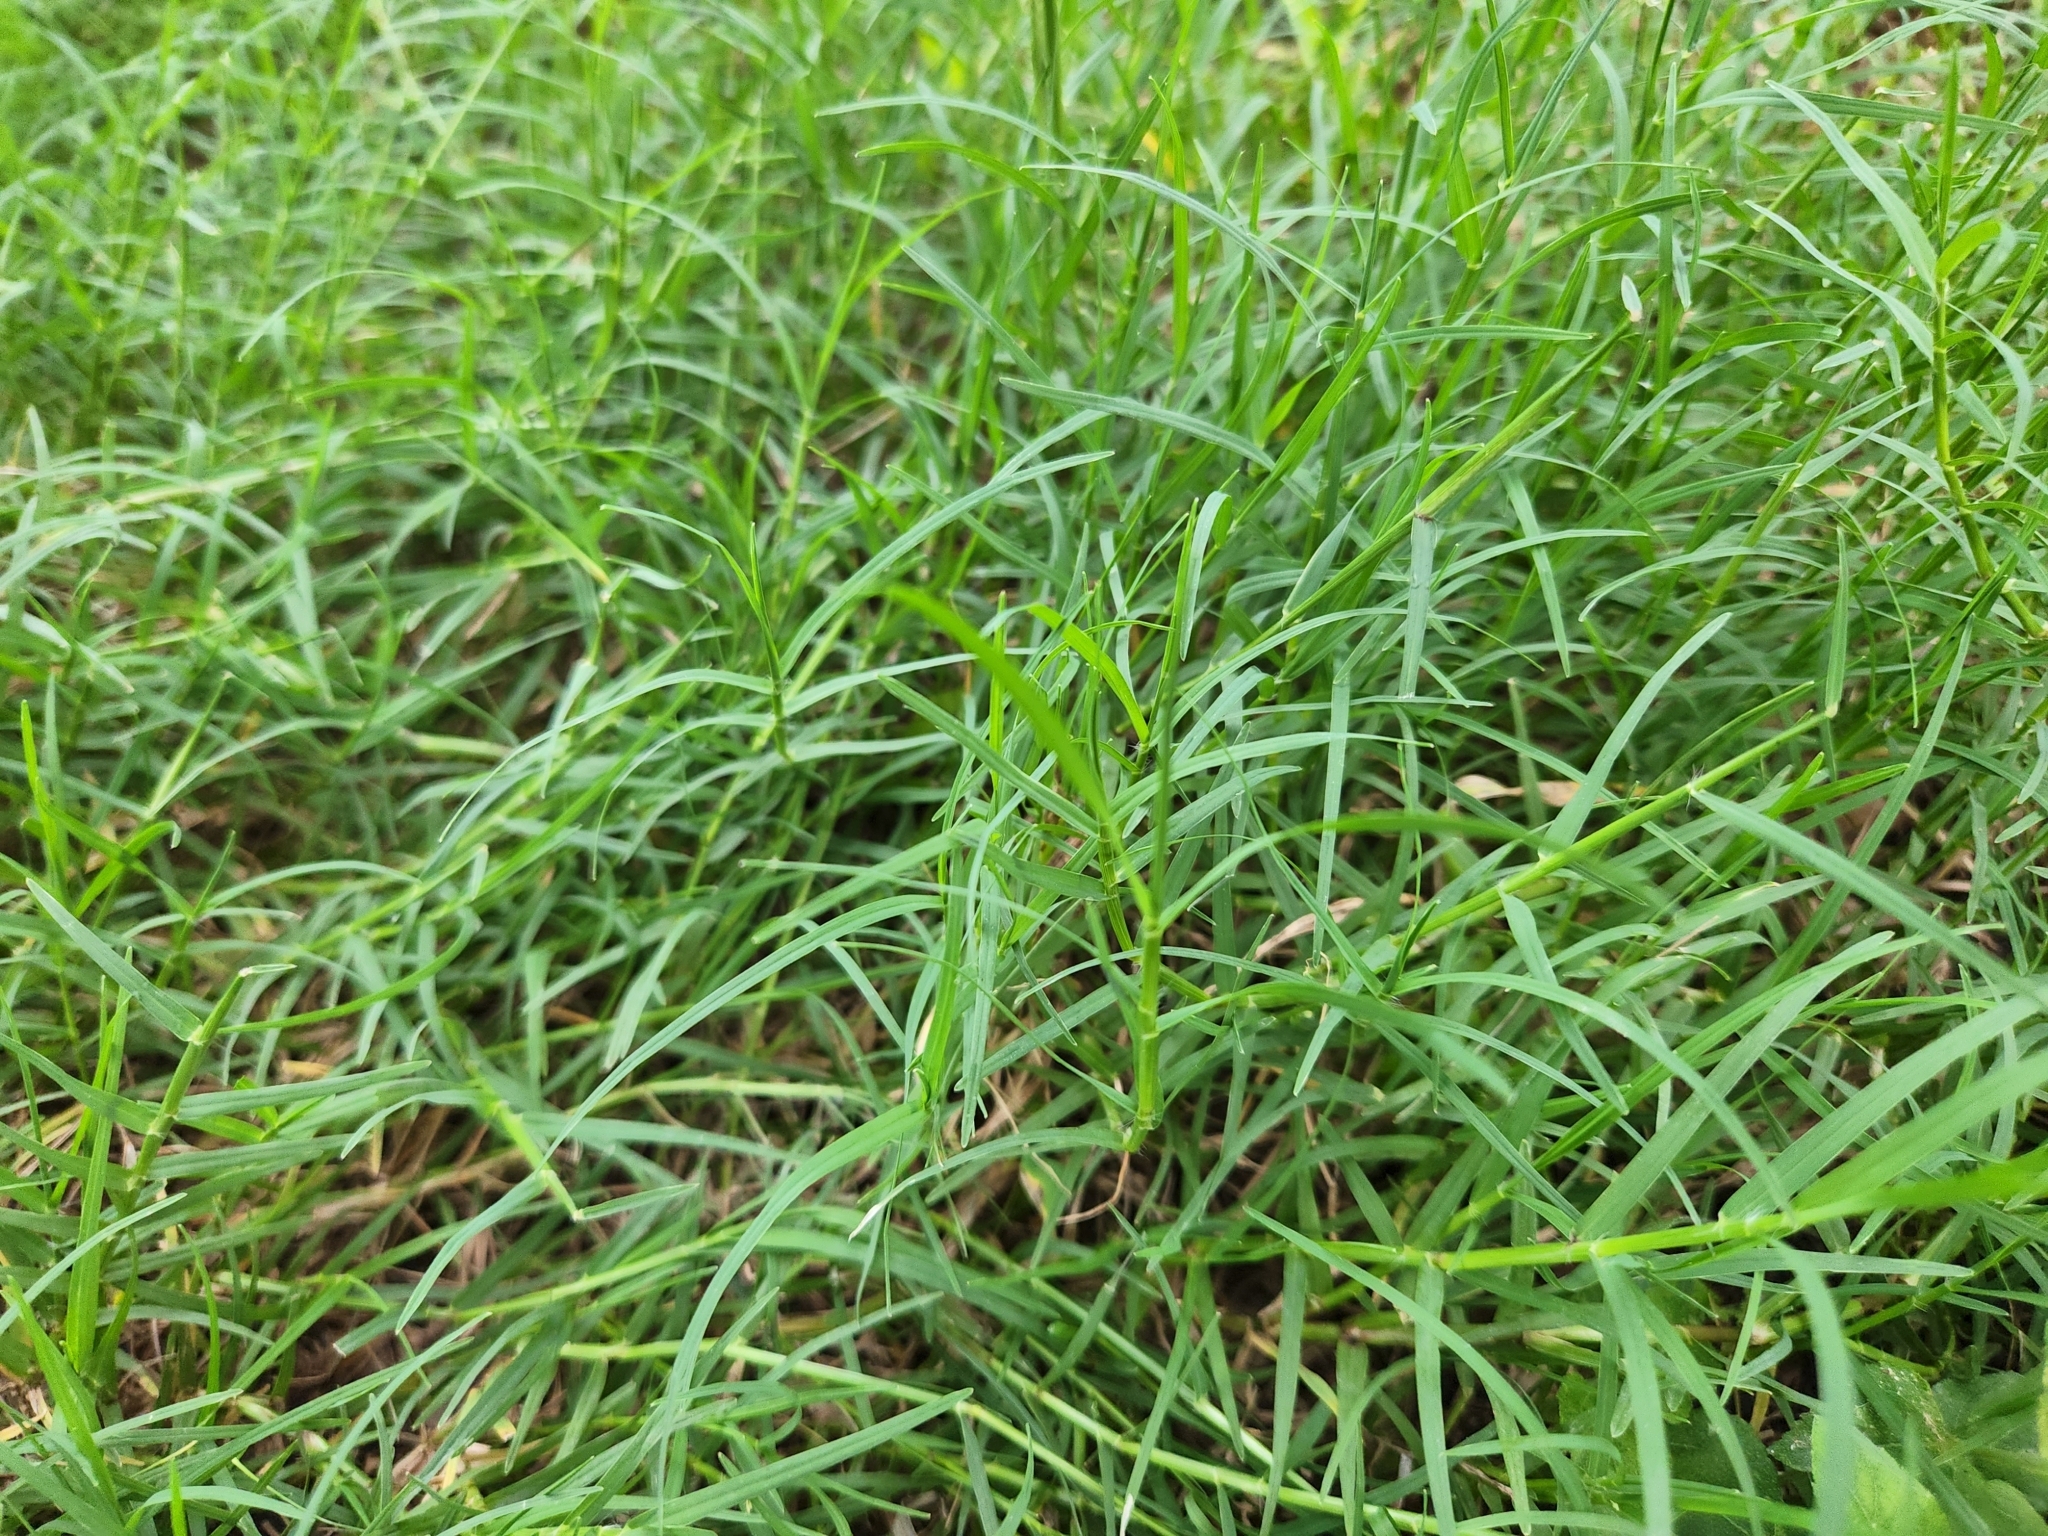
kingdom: Plantae
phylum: Tracheophyta
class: Liliopsida
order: Poales
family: Poaceae
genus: Cynodon
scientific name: Cynodon dactylon
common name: Bermuda grass
